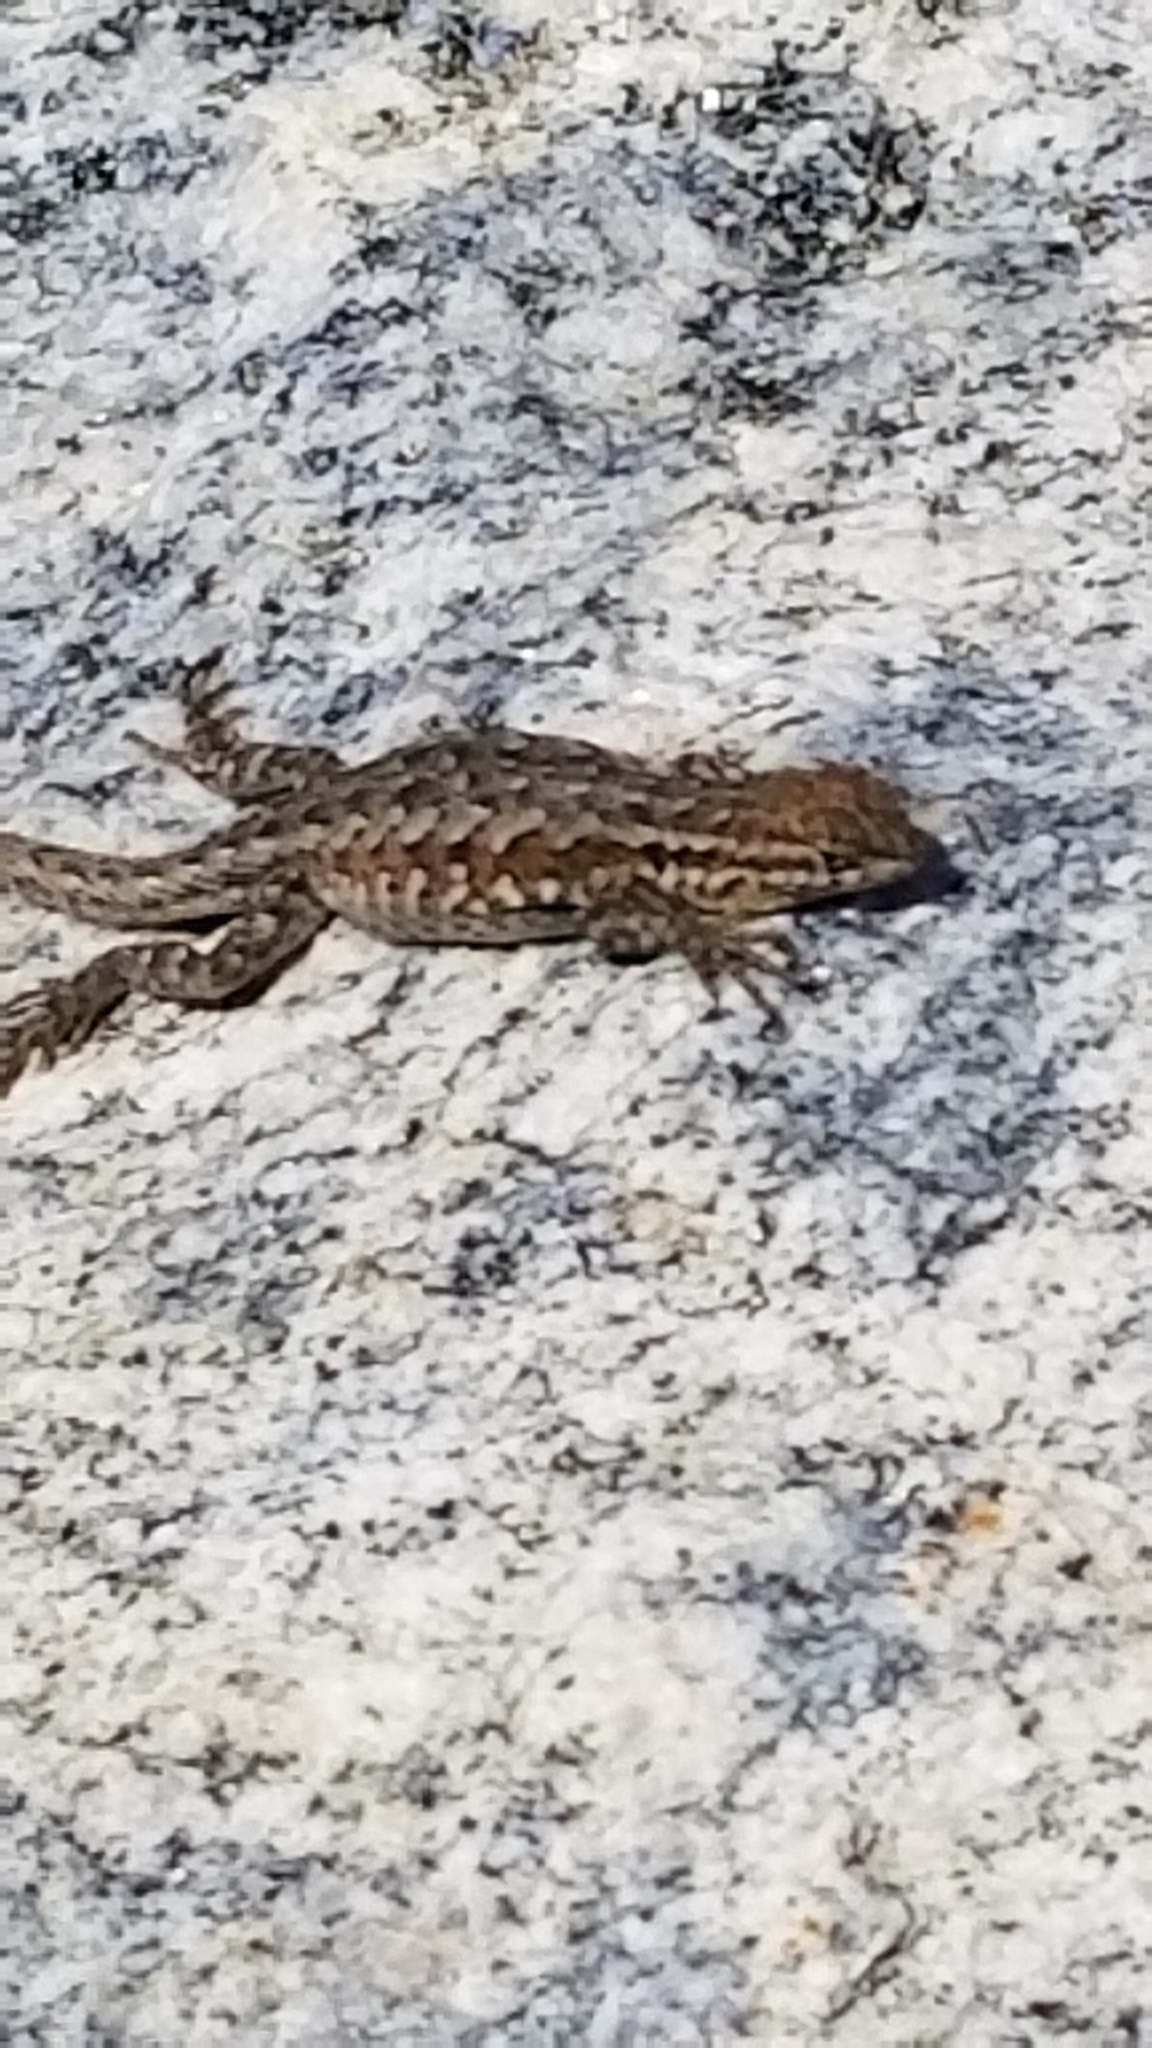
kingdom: Animalia
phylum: Chordata
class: Squamata
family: Phrynosomatidae
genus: Uta
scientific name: Uta stansburiana
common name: Side-blotched lizard
